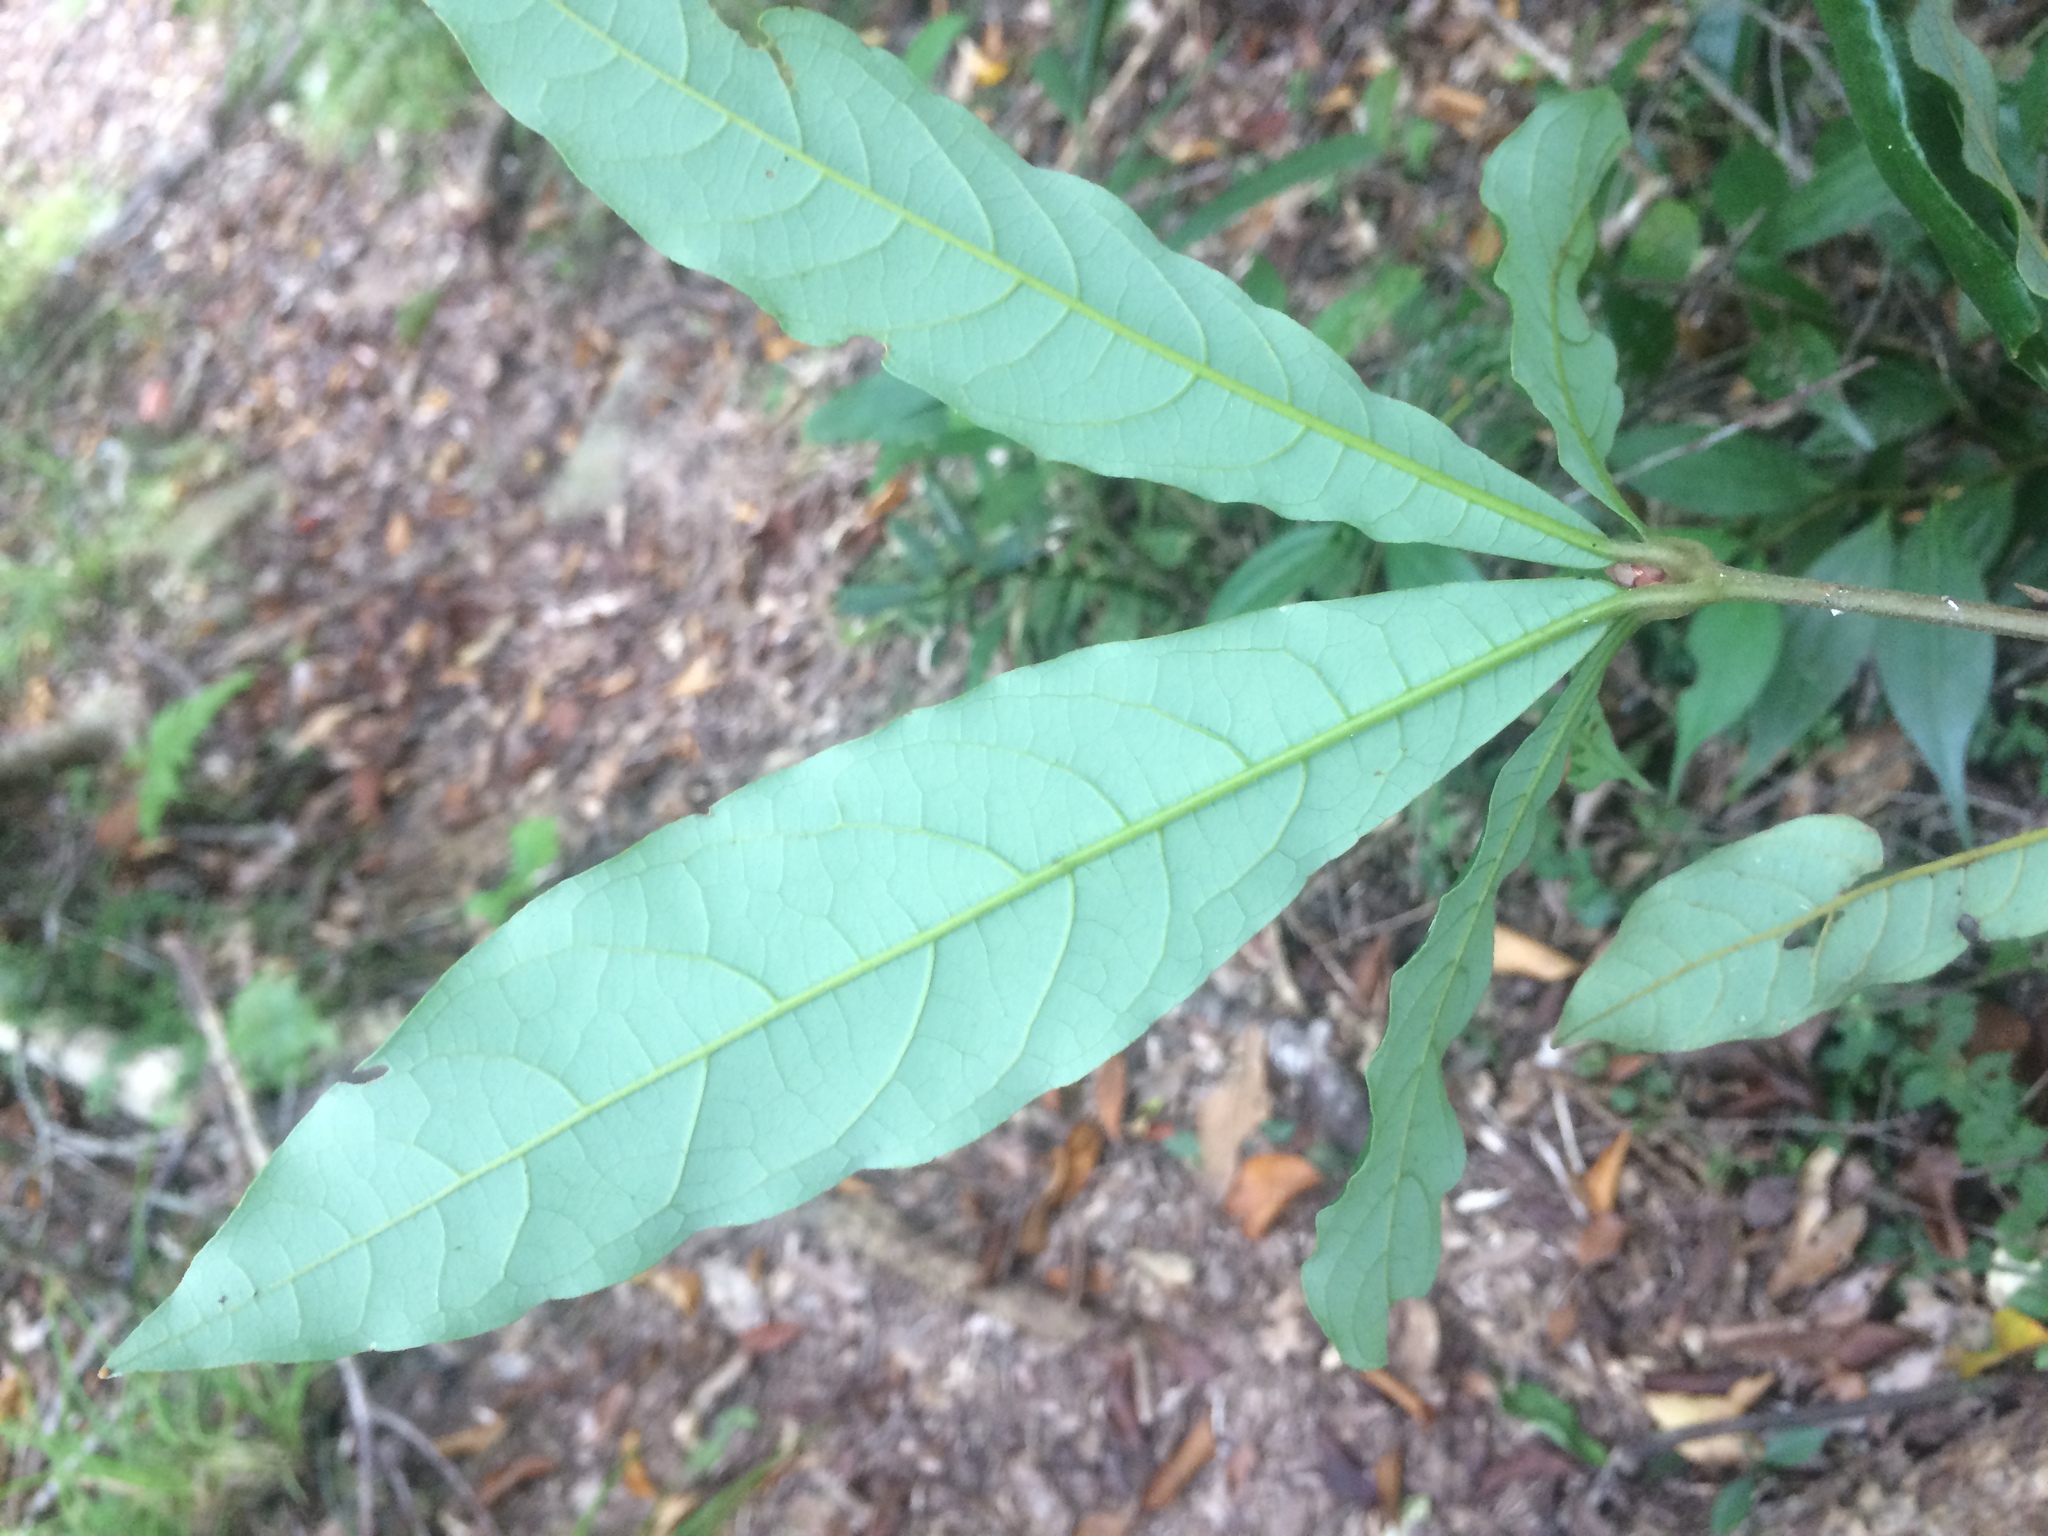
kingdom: Plantae
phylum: Tracheophyta
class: Magnoliopsida
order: Laurales
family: Lauraceae
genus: Litsea
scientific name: Litsea acutivena
